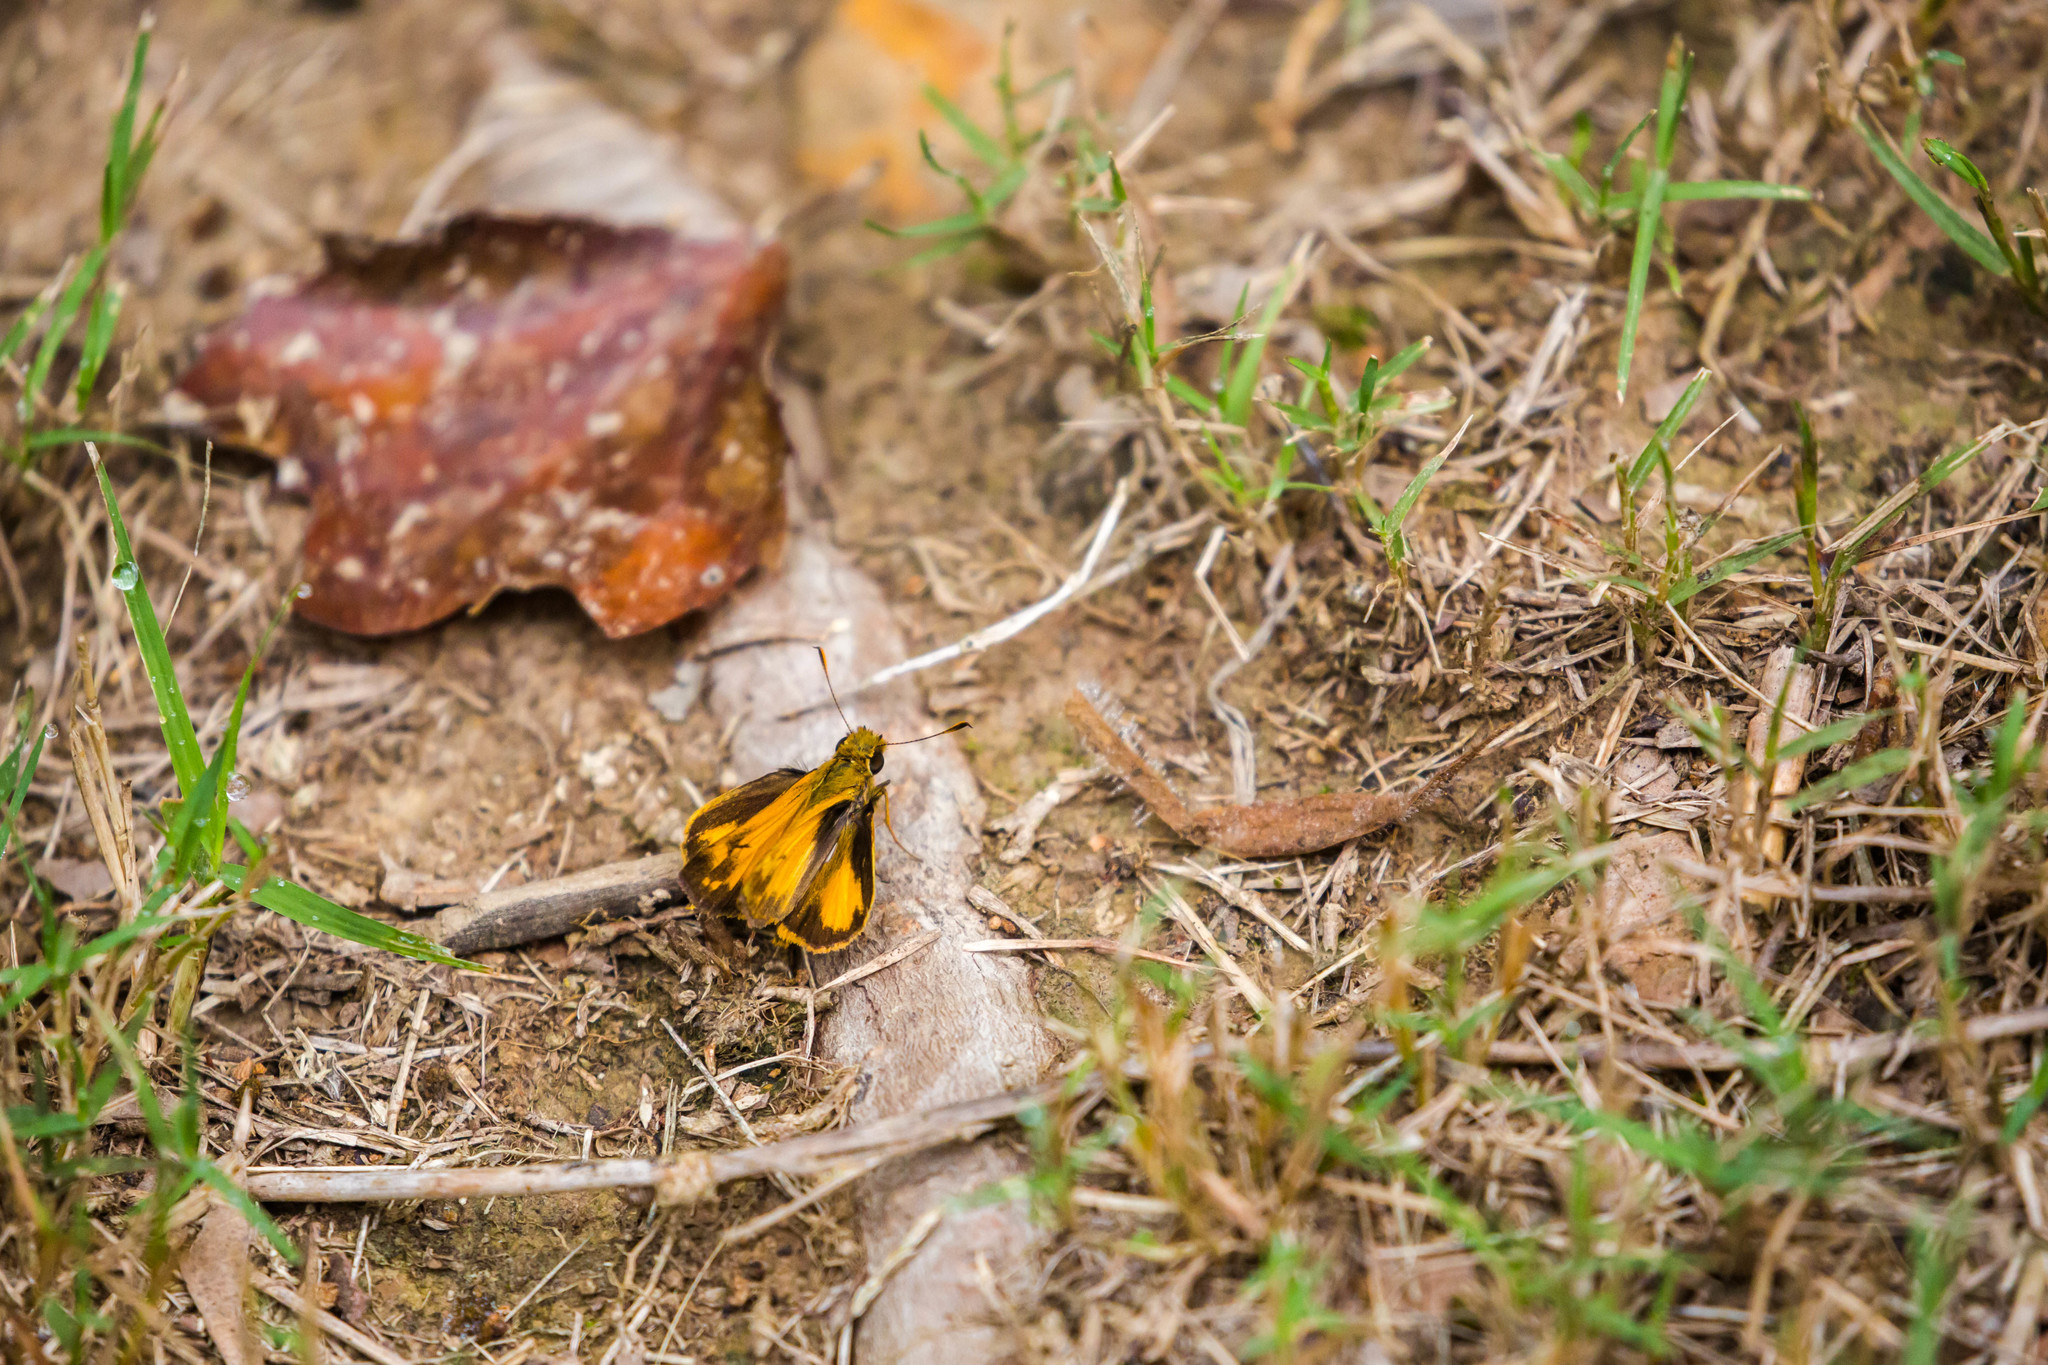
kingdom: Animalia
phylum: Arthropoda
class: Insecta
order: Lepidoptera
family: Hesperiidae
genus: Lon
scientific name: Lon zabulon
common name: Zabulon skipper
